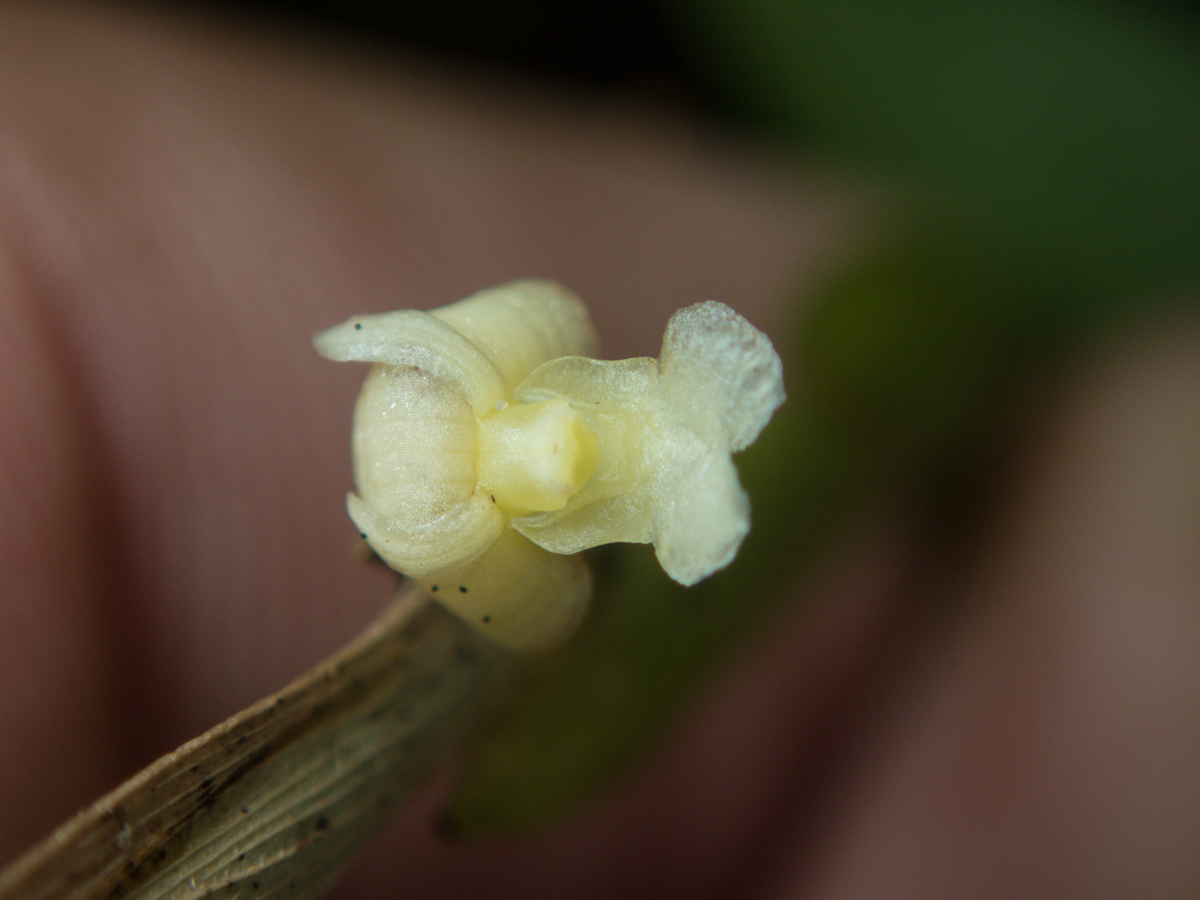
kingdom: Plantae
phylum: Tracheophyta
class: Liliopsida
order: Asparagales
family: Orchidaceae
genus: Dendrobium
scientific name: Dendrobium aloifolium
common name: Aloe-like dendrobium
